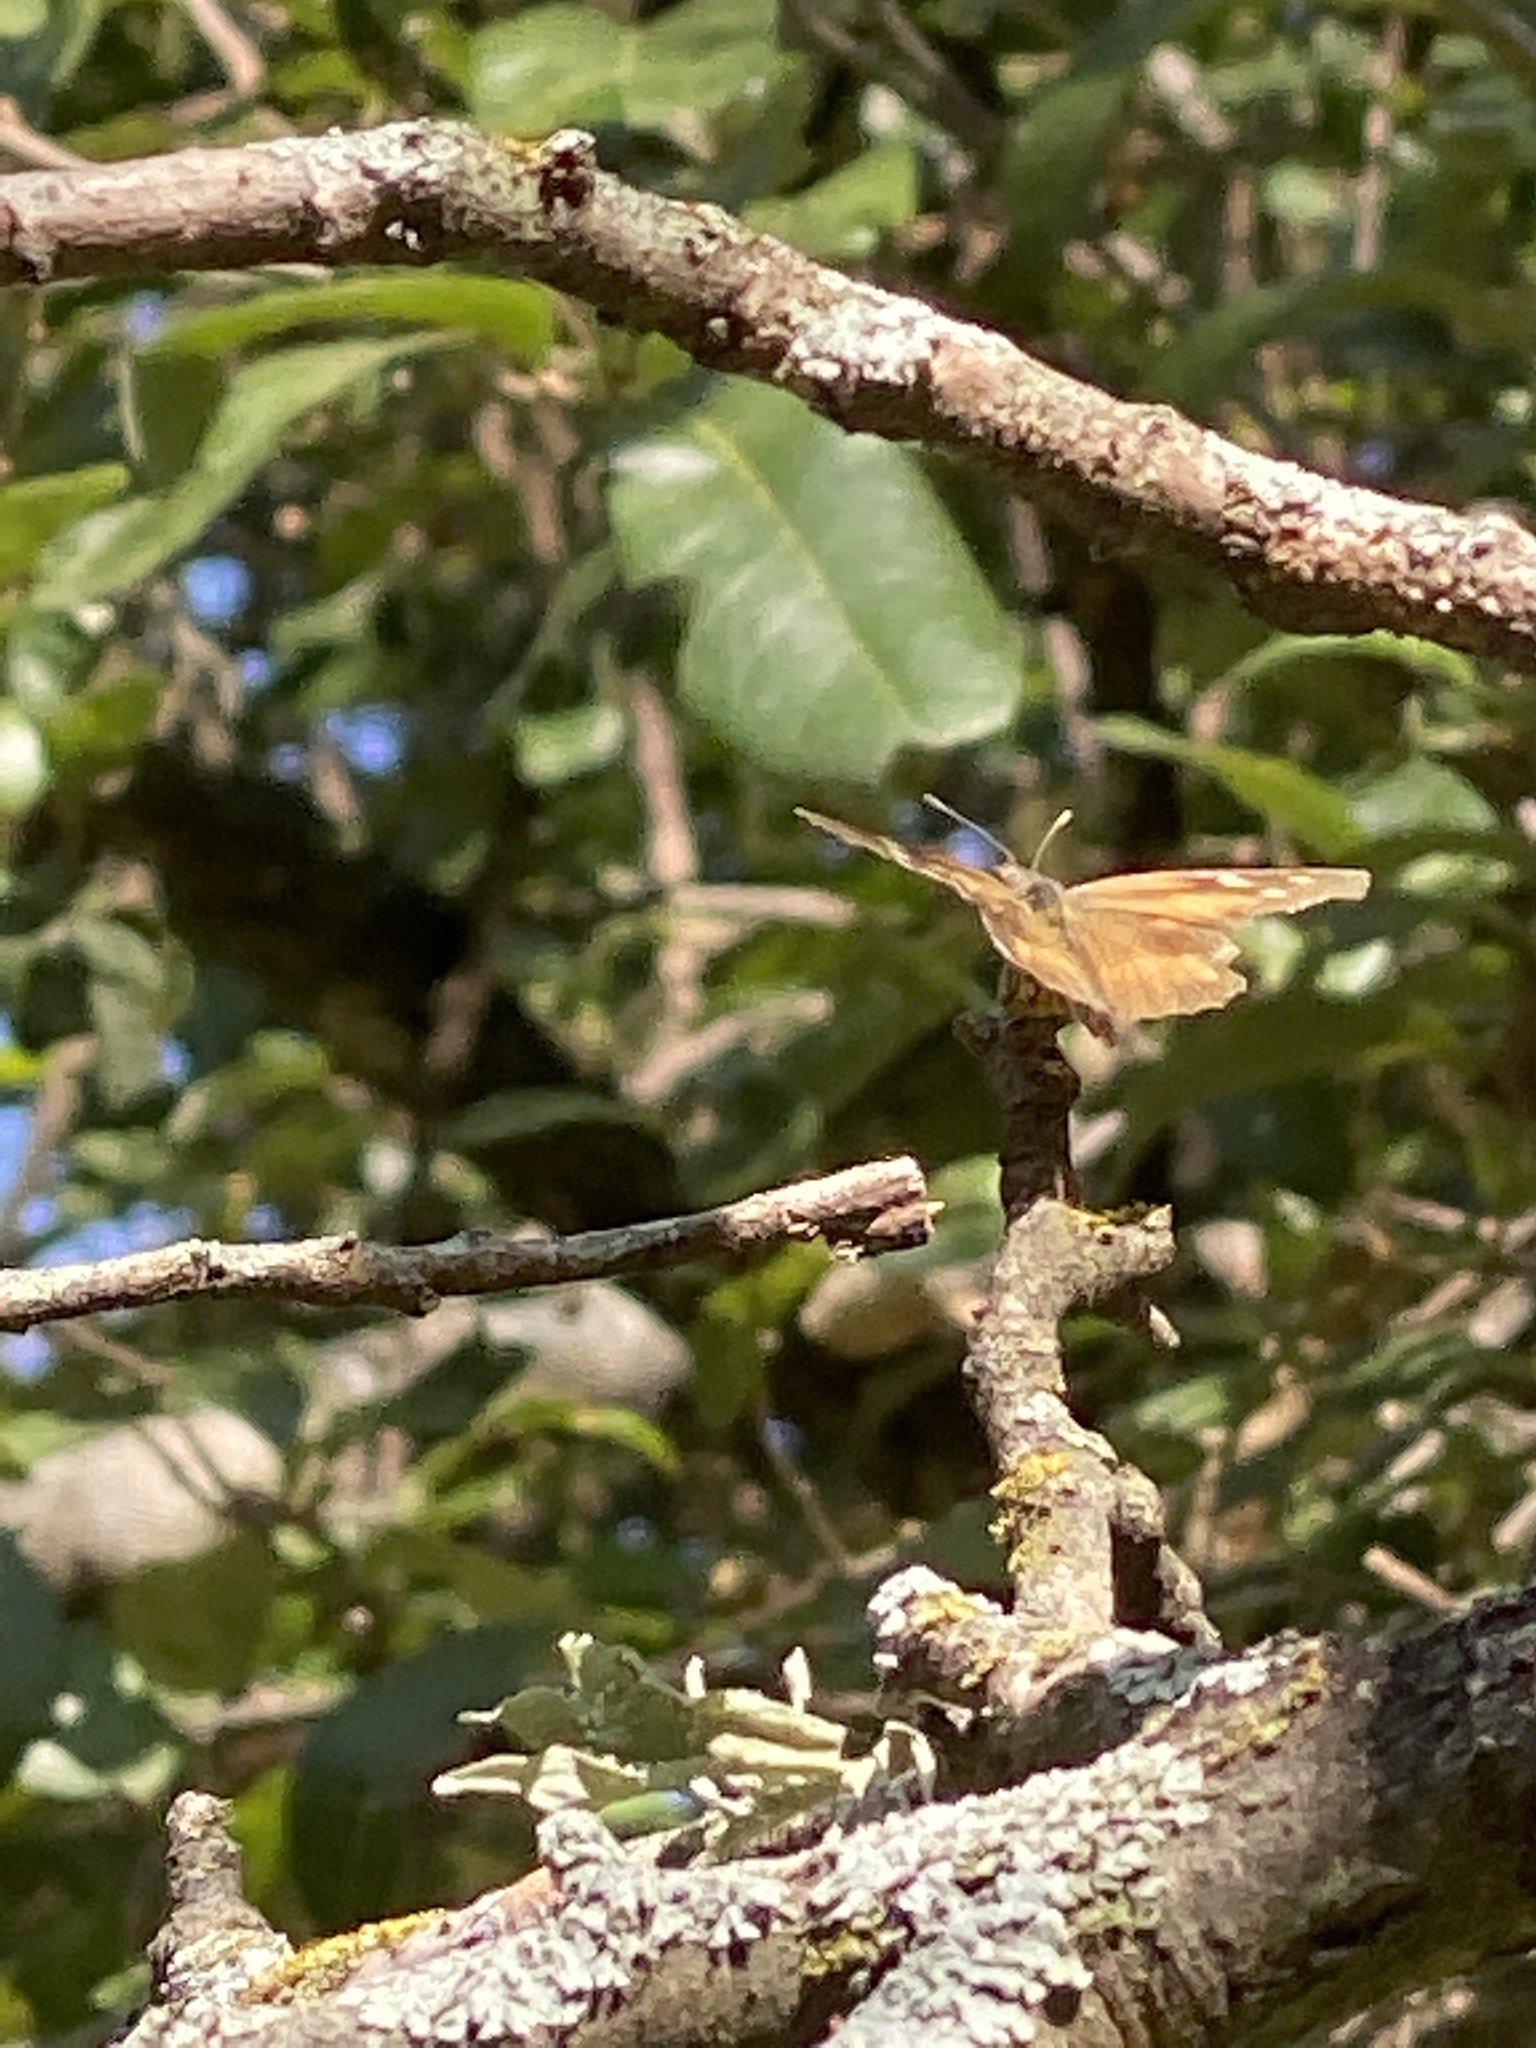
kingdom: Animalia
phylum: Arthropoda
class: Insecta
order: Lepidoptera
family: Nymphalidae
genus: Libytheana
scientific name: Libytheana carinenta
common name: American snout
